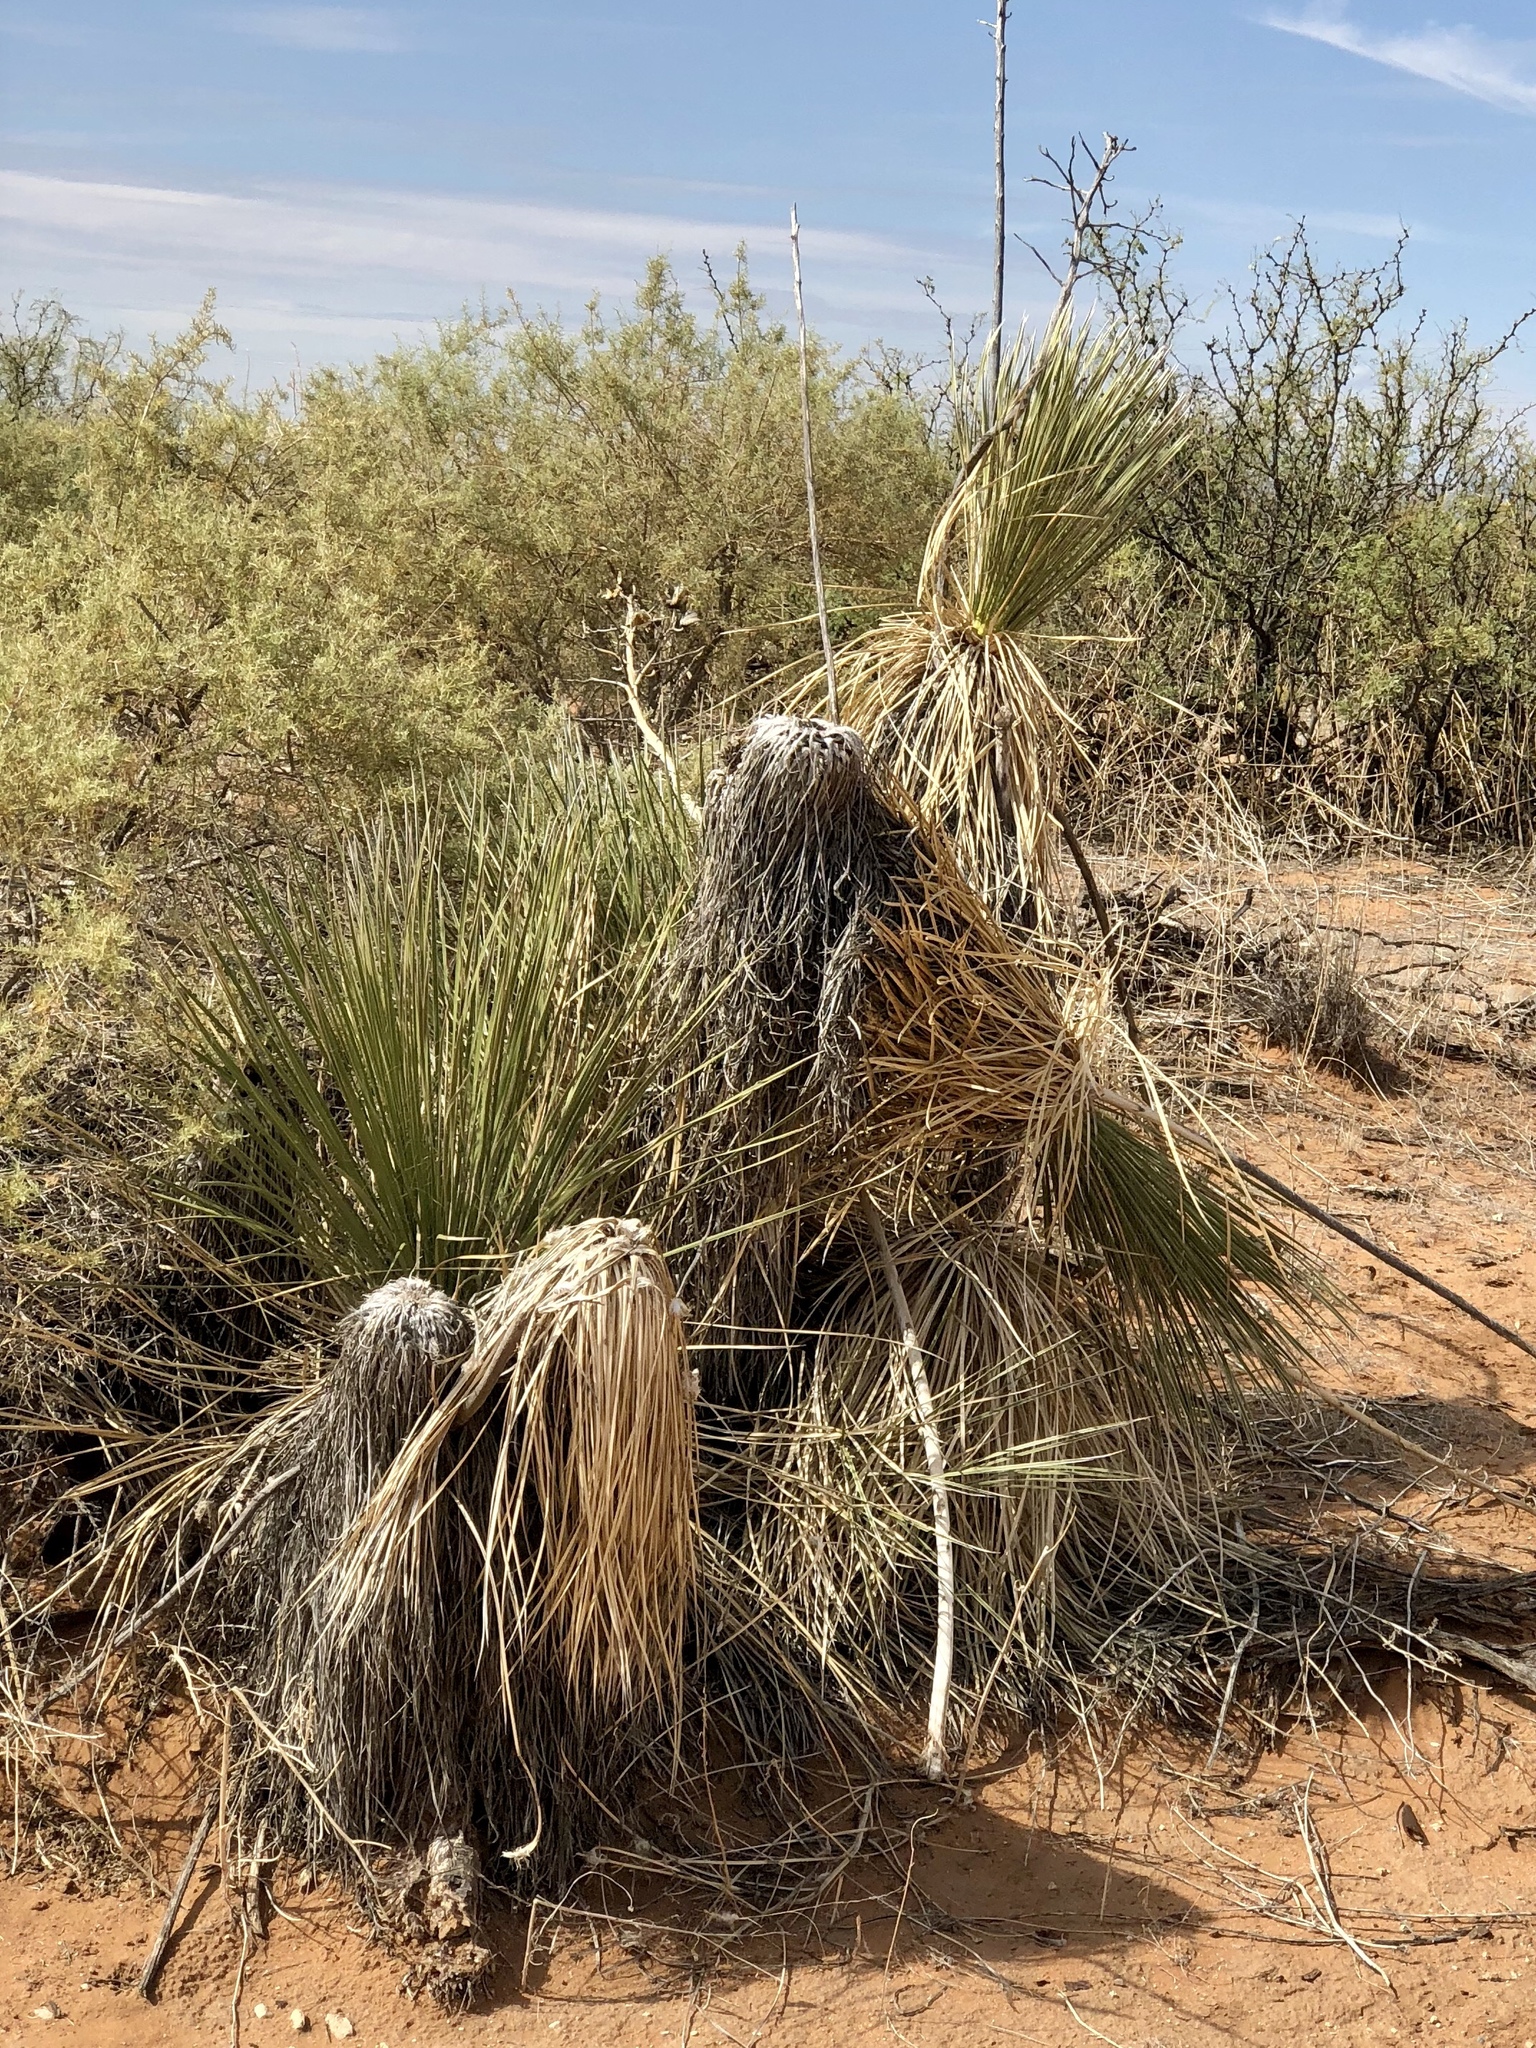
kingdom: Plantae
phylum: Tracheophyta
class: Liliopsida
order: Asparagales
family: Asparagaceae
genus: Yucca
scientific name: Yucca elata
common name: Palmella
